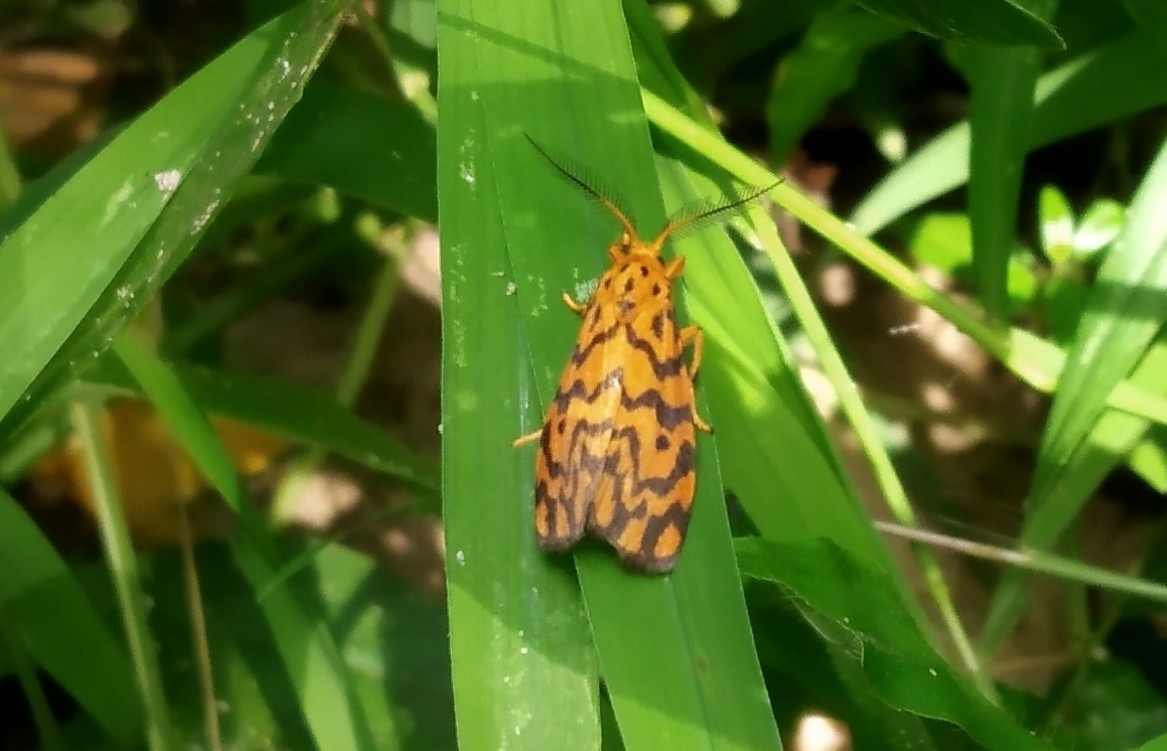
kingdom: Animalia
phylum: Arthropoda
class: Insecta
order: Lepidoptera
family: Erebidae
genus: Nepita
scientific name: Nepita conferta
